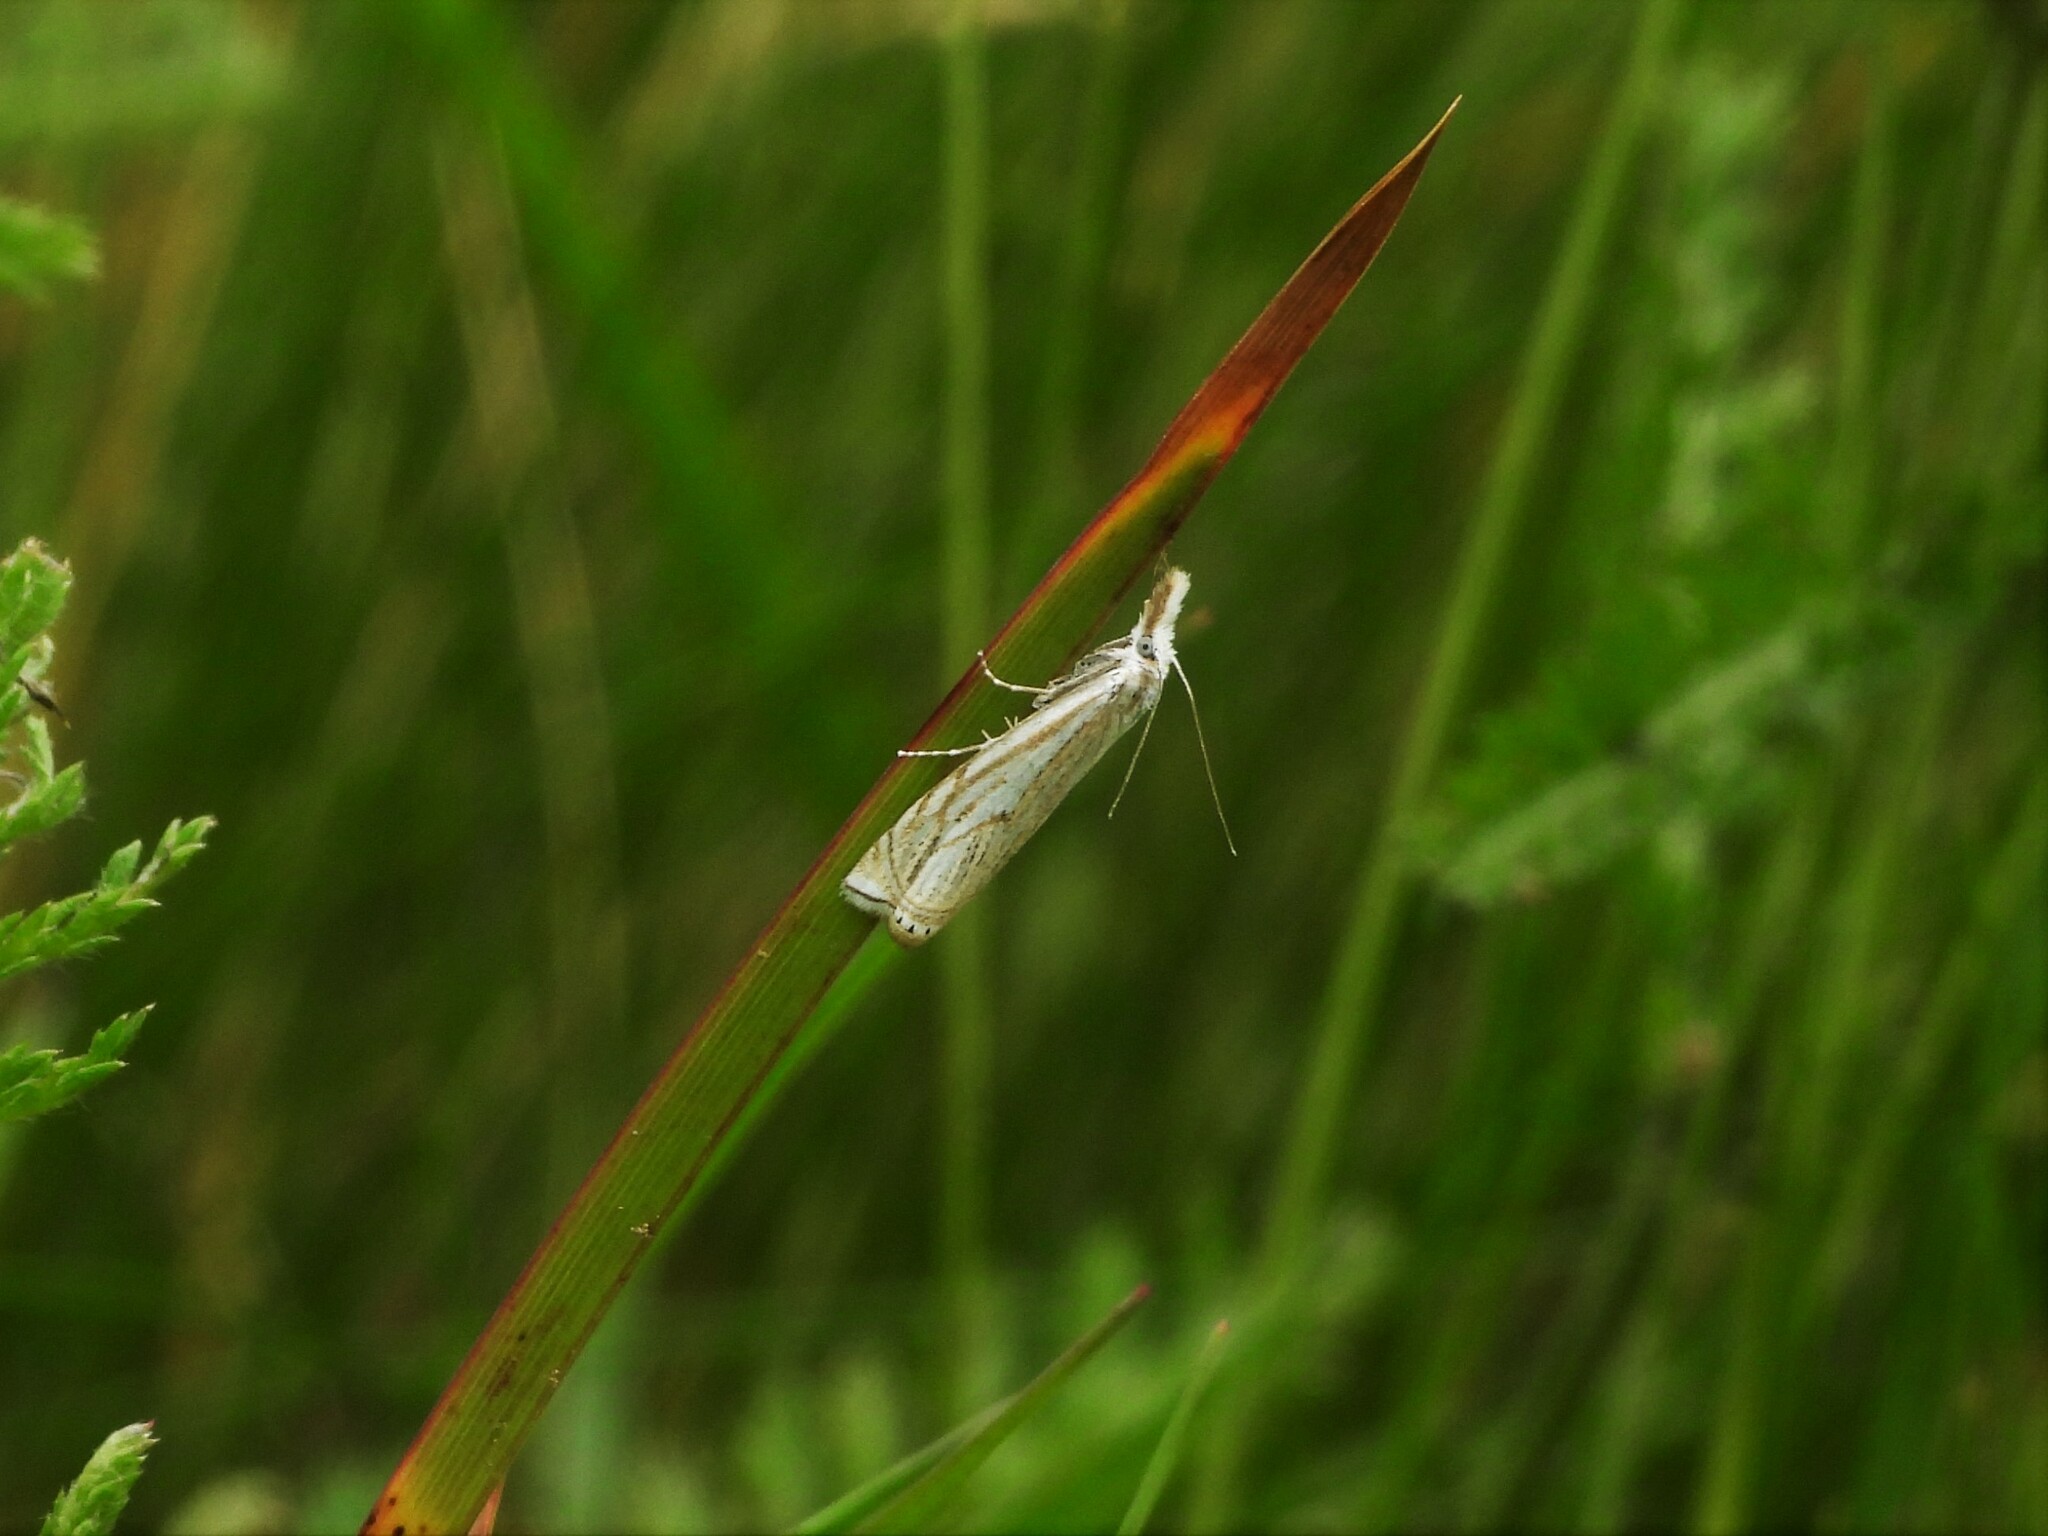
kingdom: Animalia
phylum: Arthropoda
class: Insecta
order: Lepidoptera
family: Crambidae
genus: Crambus
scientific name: Crambus nemorella
